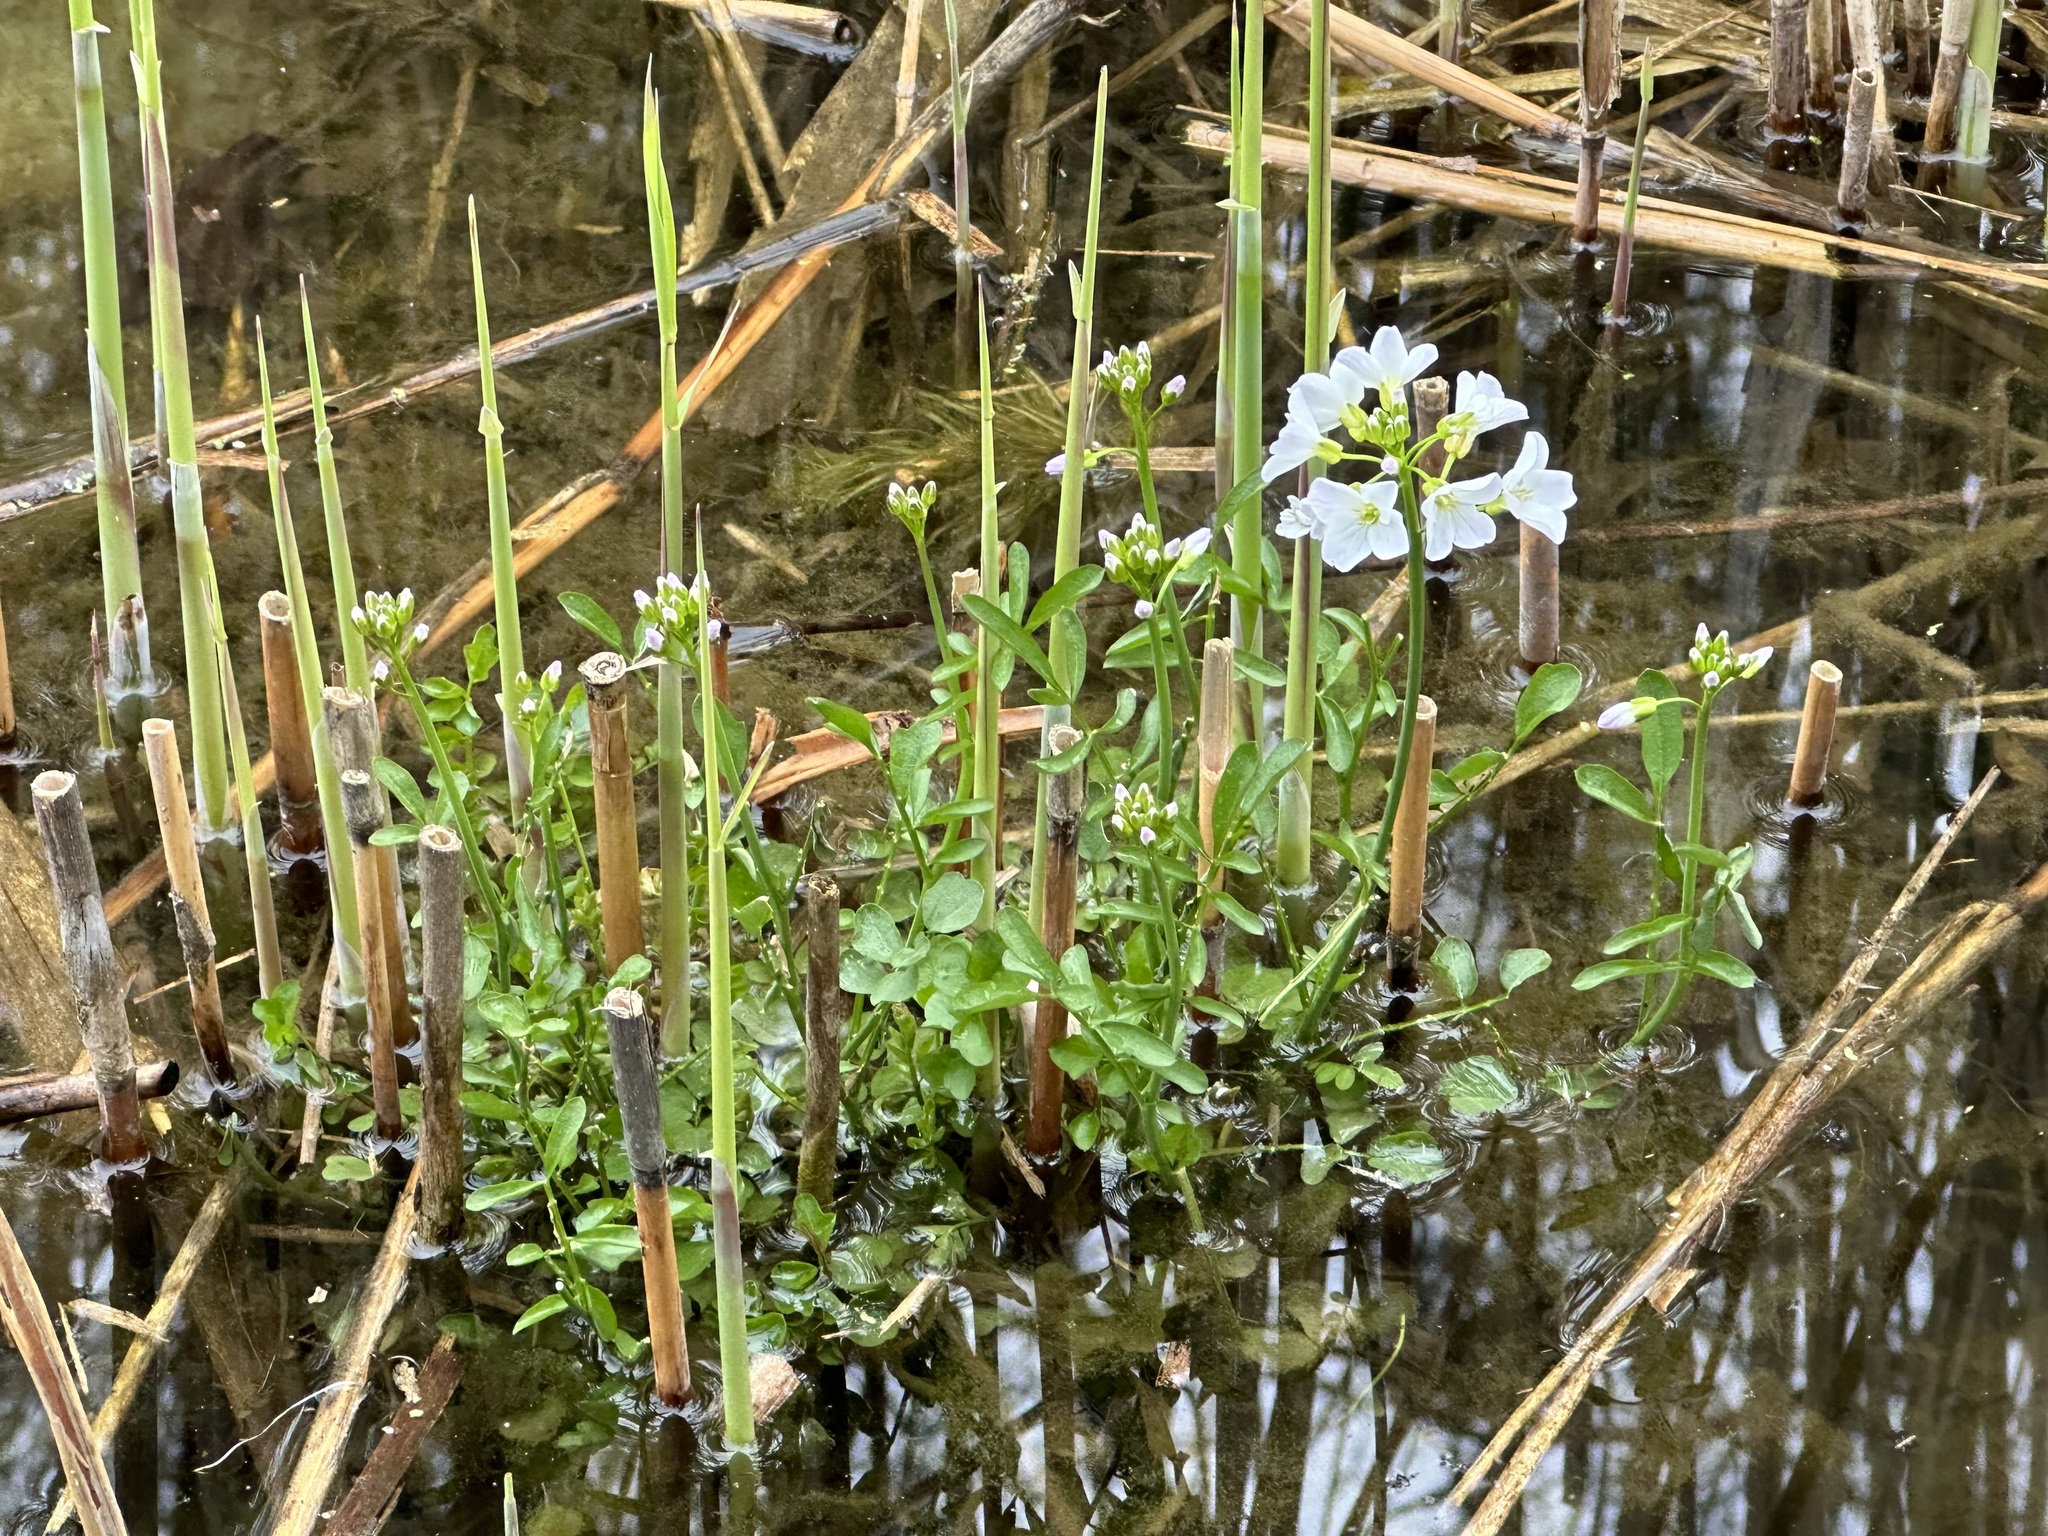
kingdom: Plantae
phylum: Tracheophyta
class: Magnoliopsida
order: Brassicales
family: Brassicaceae
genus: Cardamine
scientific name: Cardamine dentata
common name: Toothed bittercress
